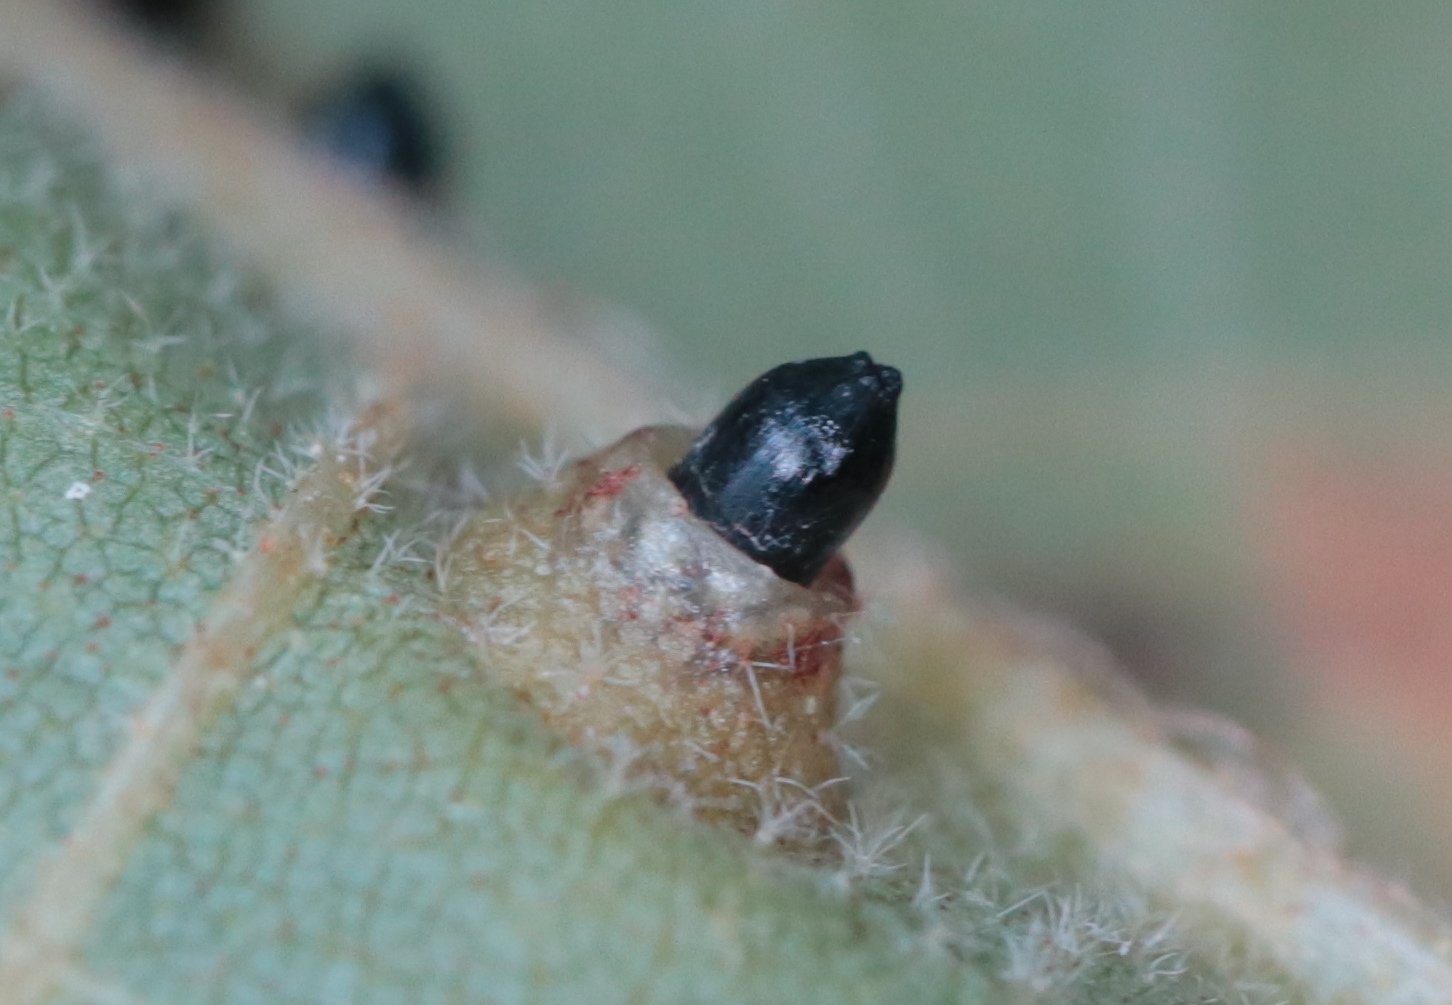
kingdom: Animalia
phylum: Arthropoda
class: Insecta
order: Diptera
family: Cecidomyiidae
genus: Caryomyia
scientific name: Caryomyia tubicola
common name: Hickory bullet gall midge
